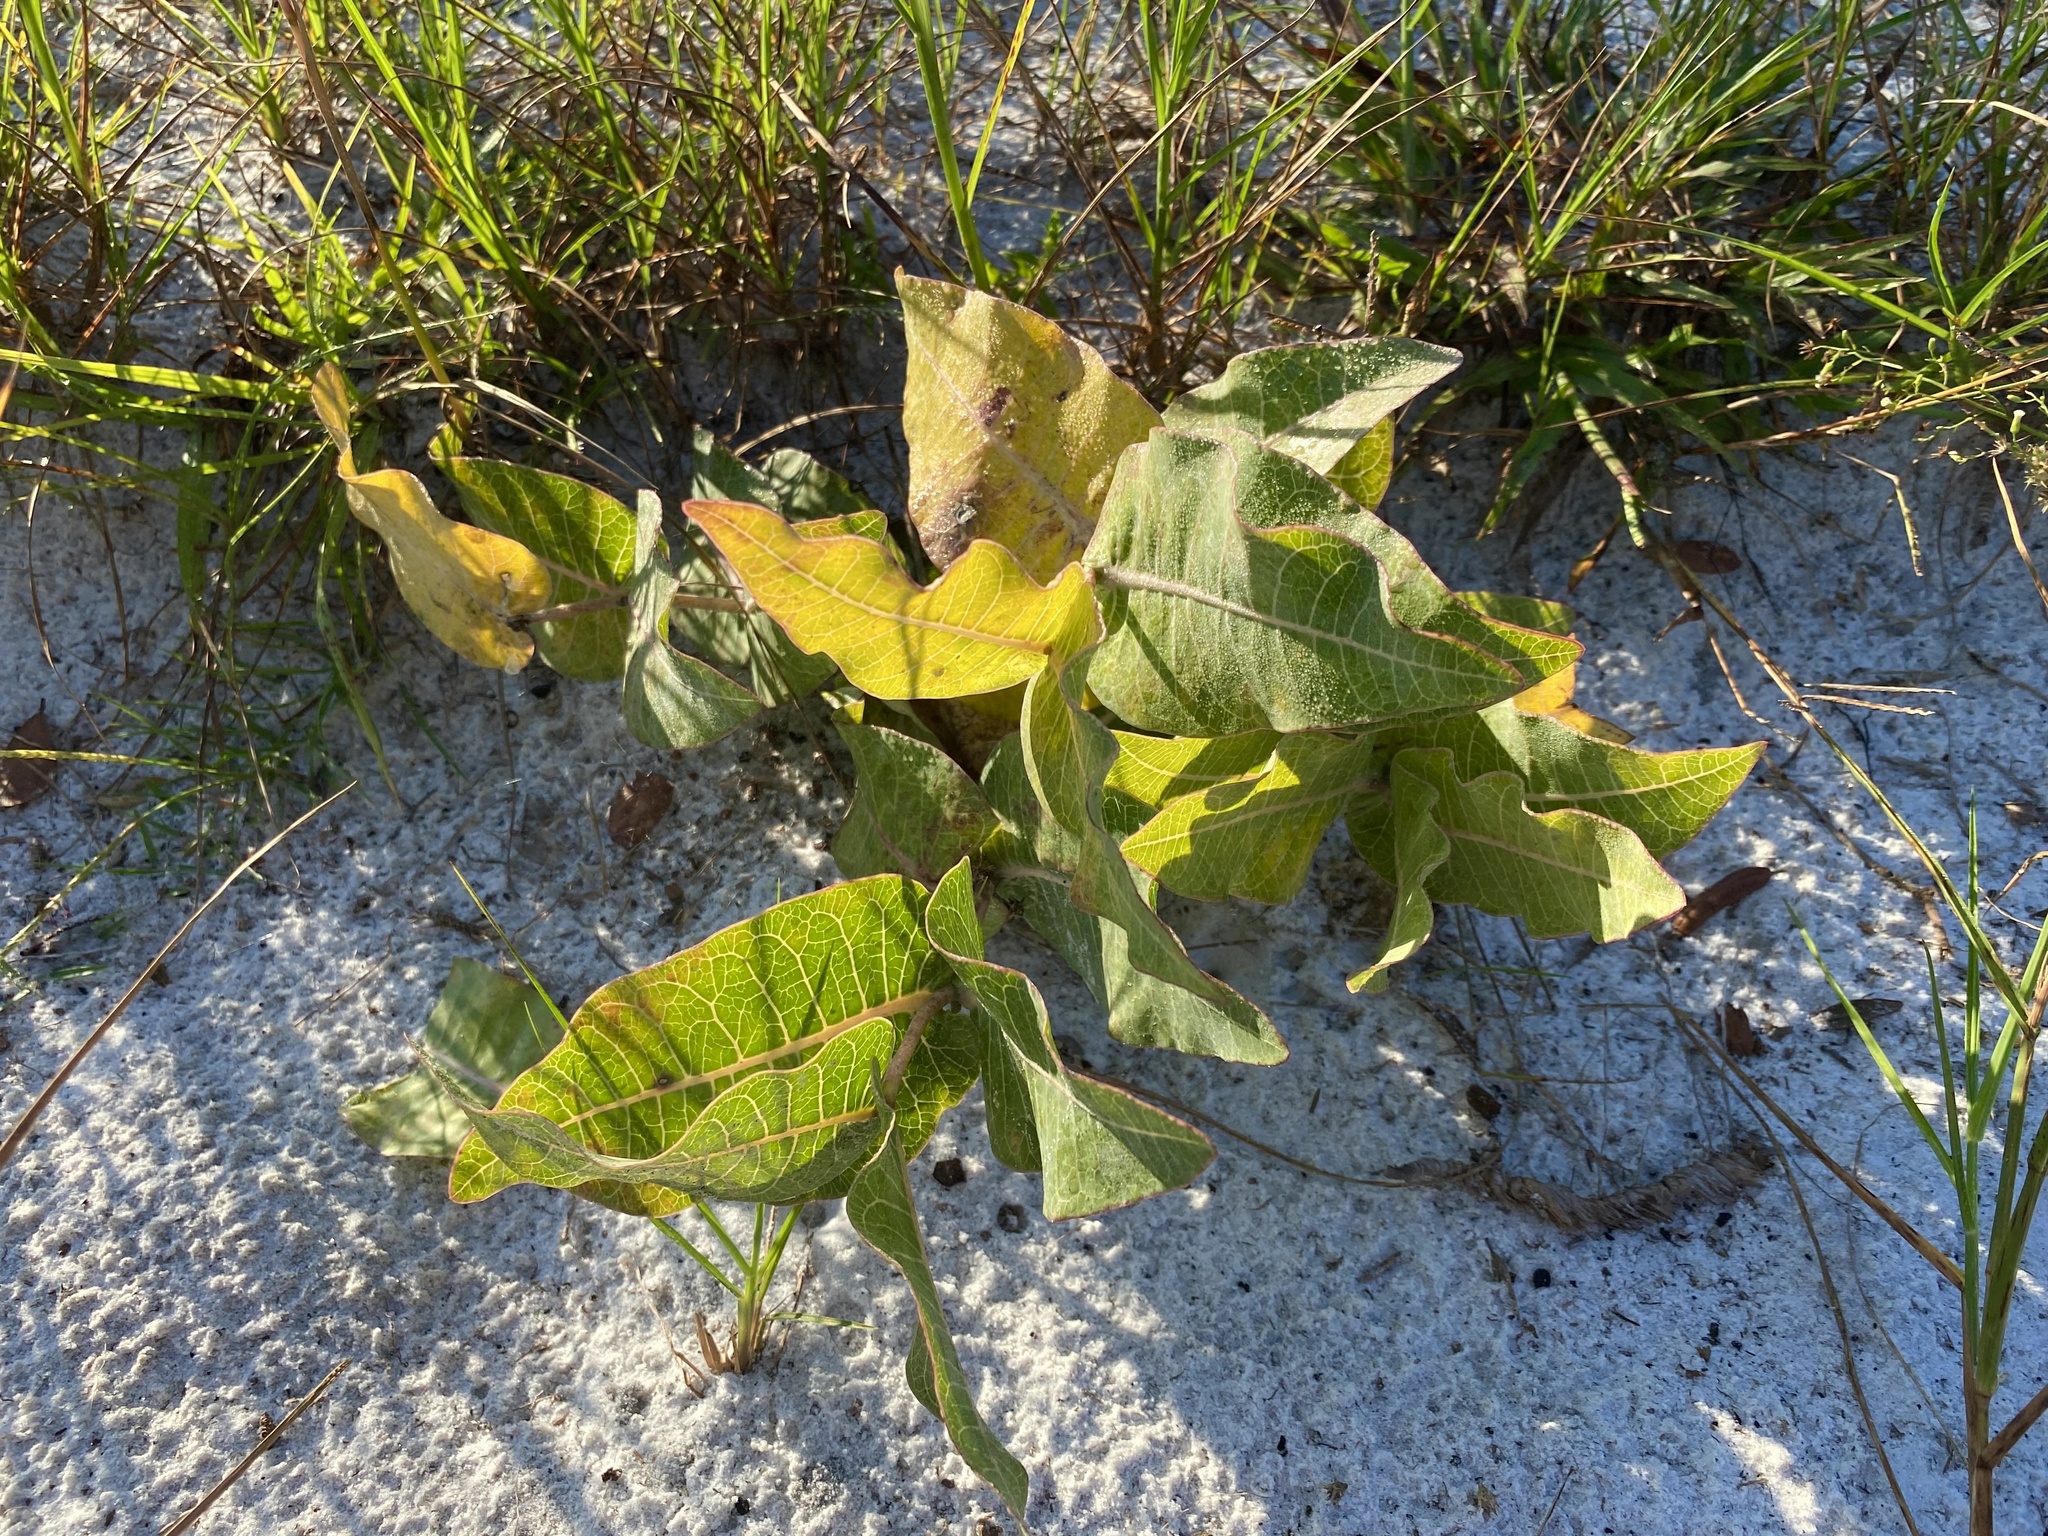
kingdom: Plantae
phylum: Tracheophyta
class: Magnoliopsida
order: Gentianales
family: Apocynaceae
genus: Asclepias
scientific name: Asclepias humistrata
